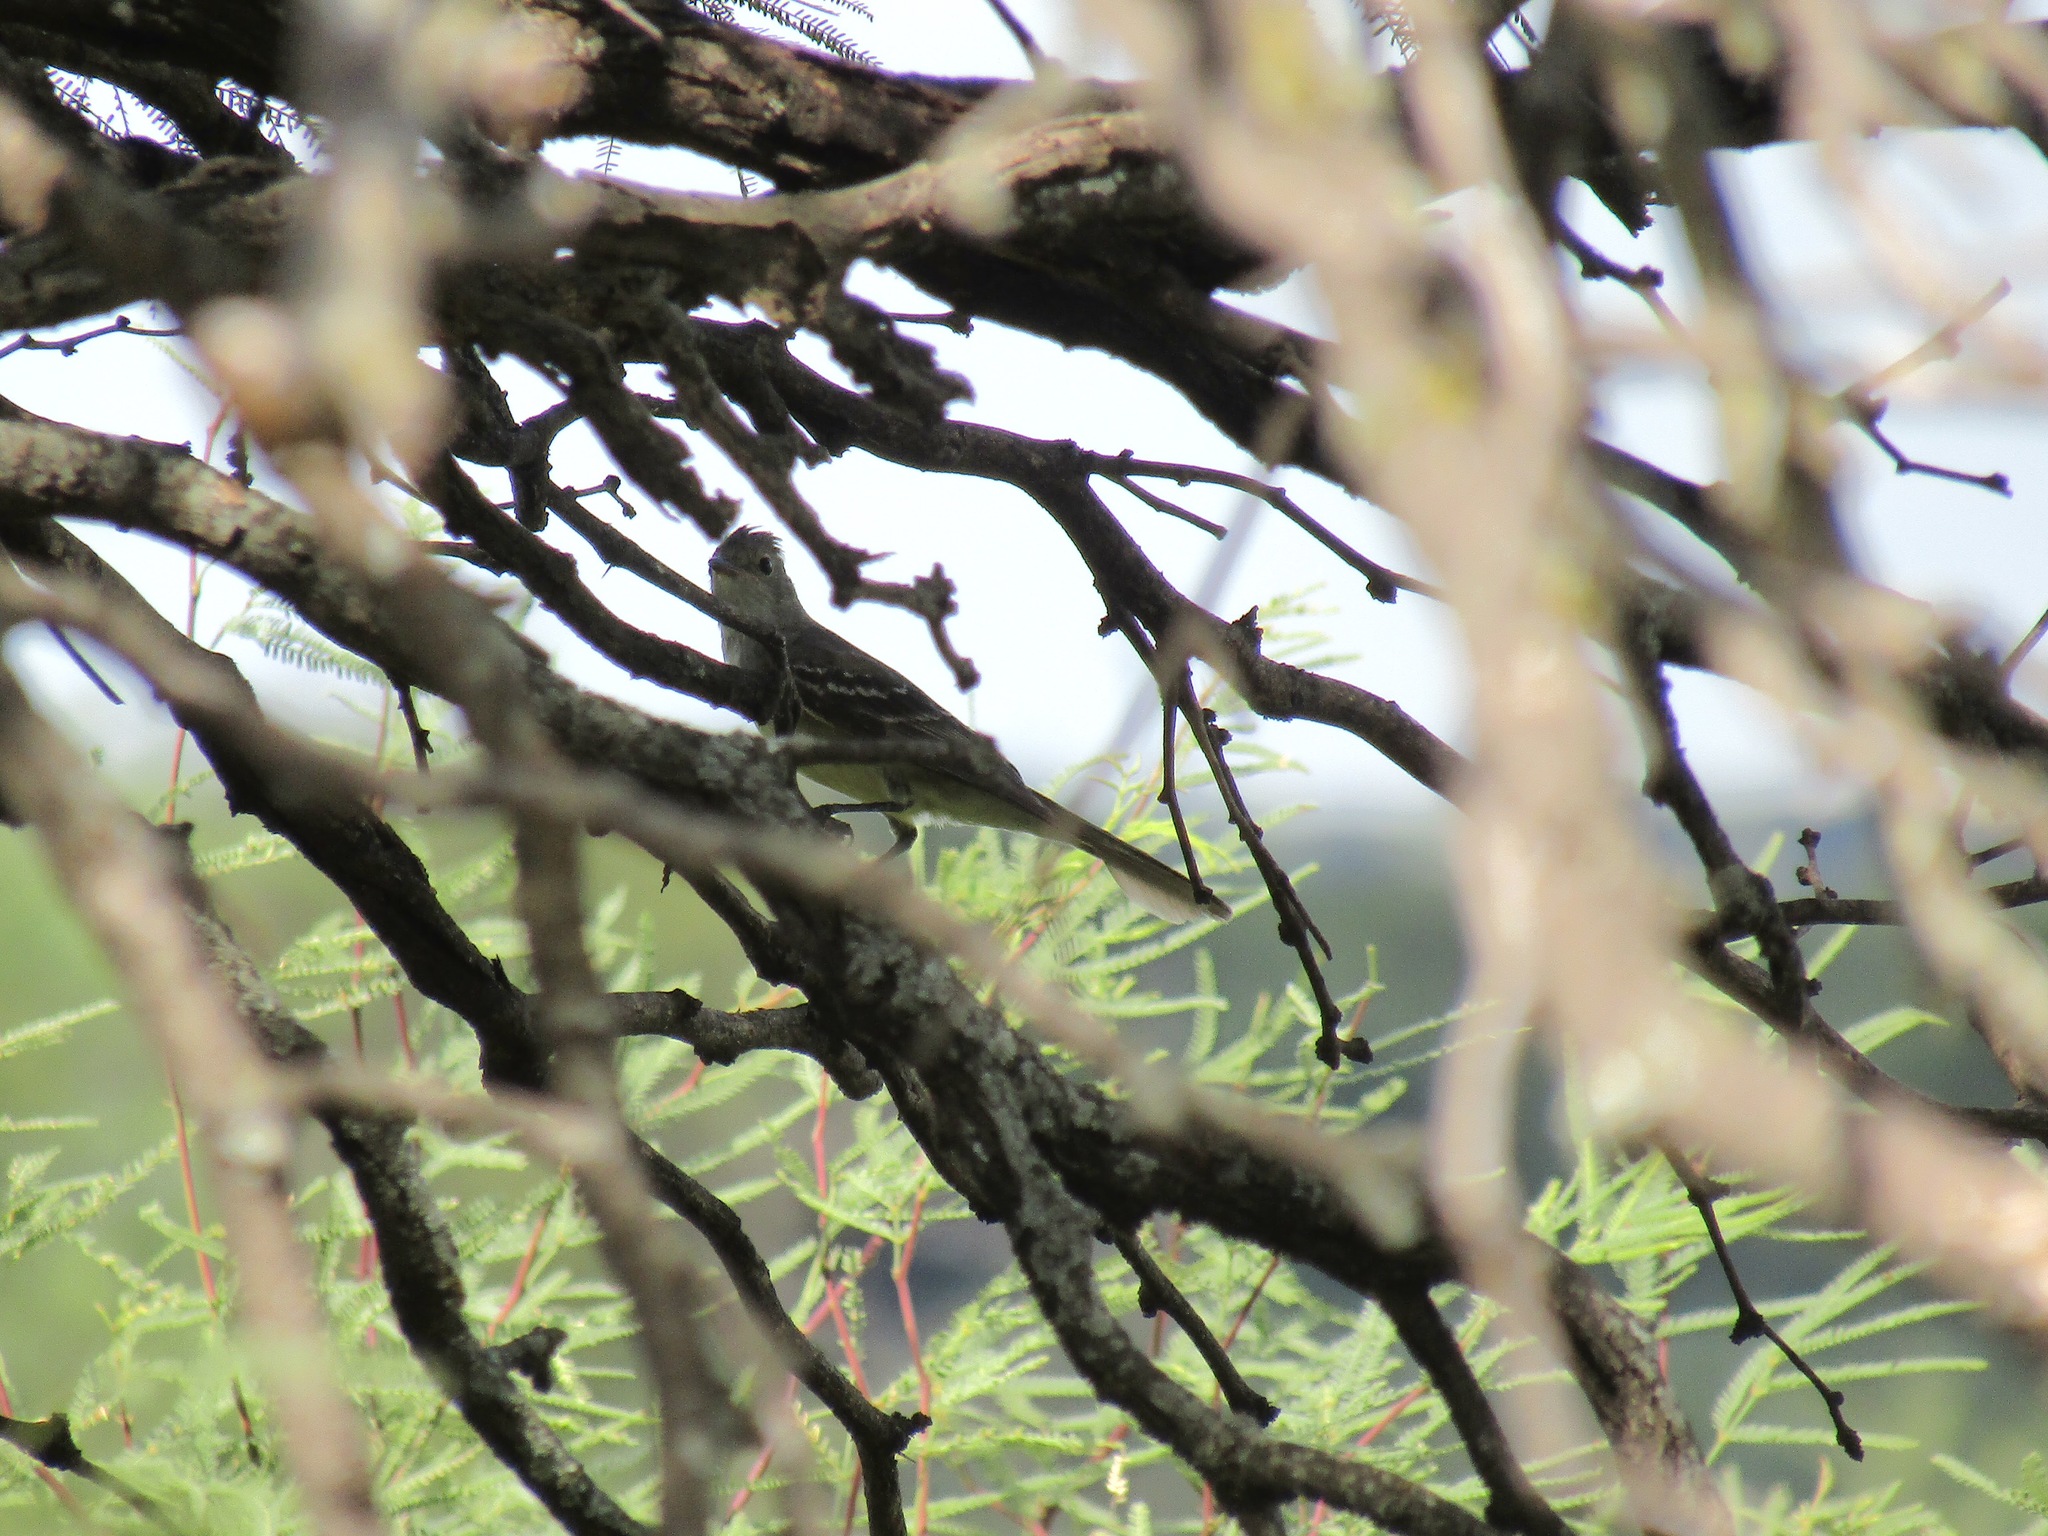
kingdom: Animalia
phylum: Chordata
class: Aves
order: Passeriformes
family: Tyrannidae
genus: Elaenia
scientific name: Elaenia albiceps
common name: White-crested elaenia
